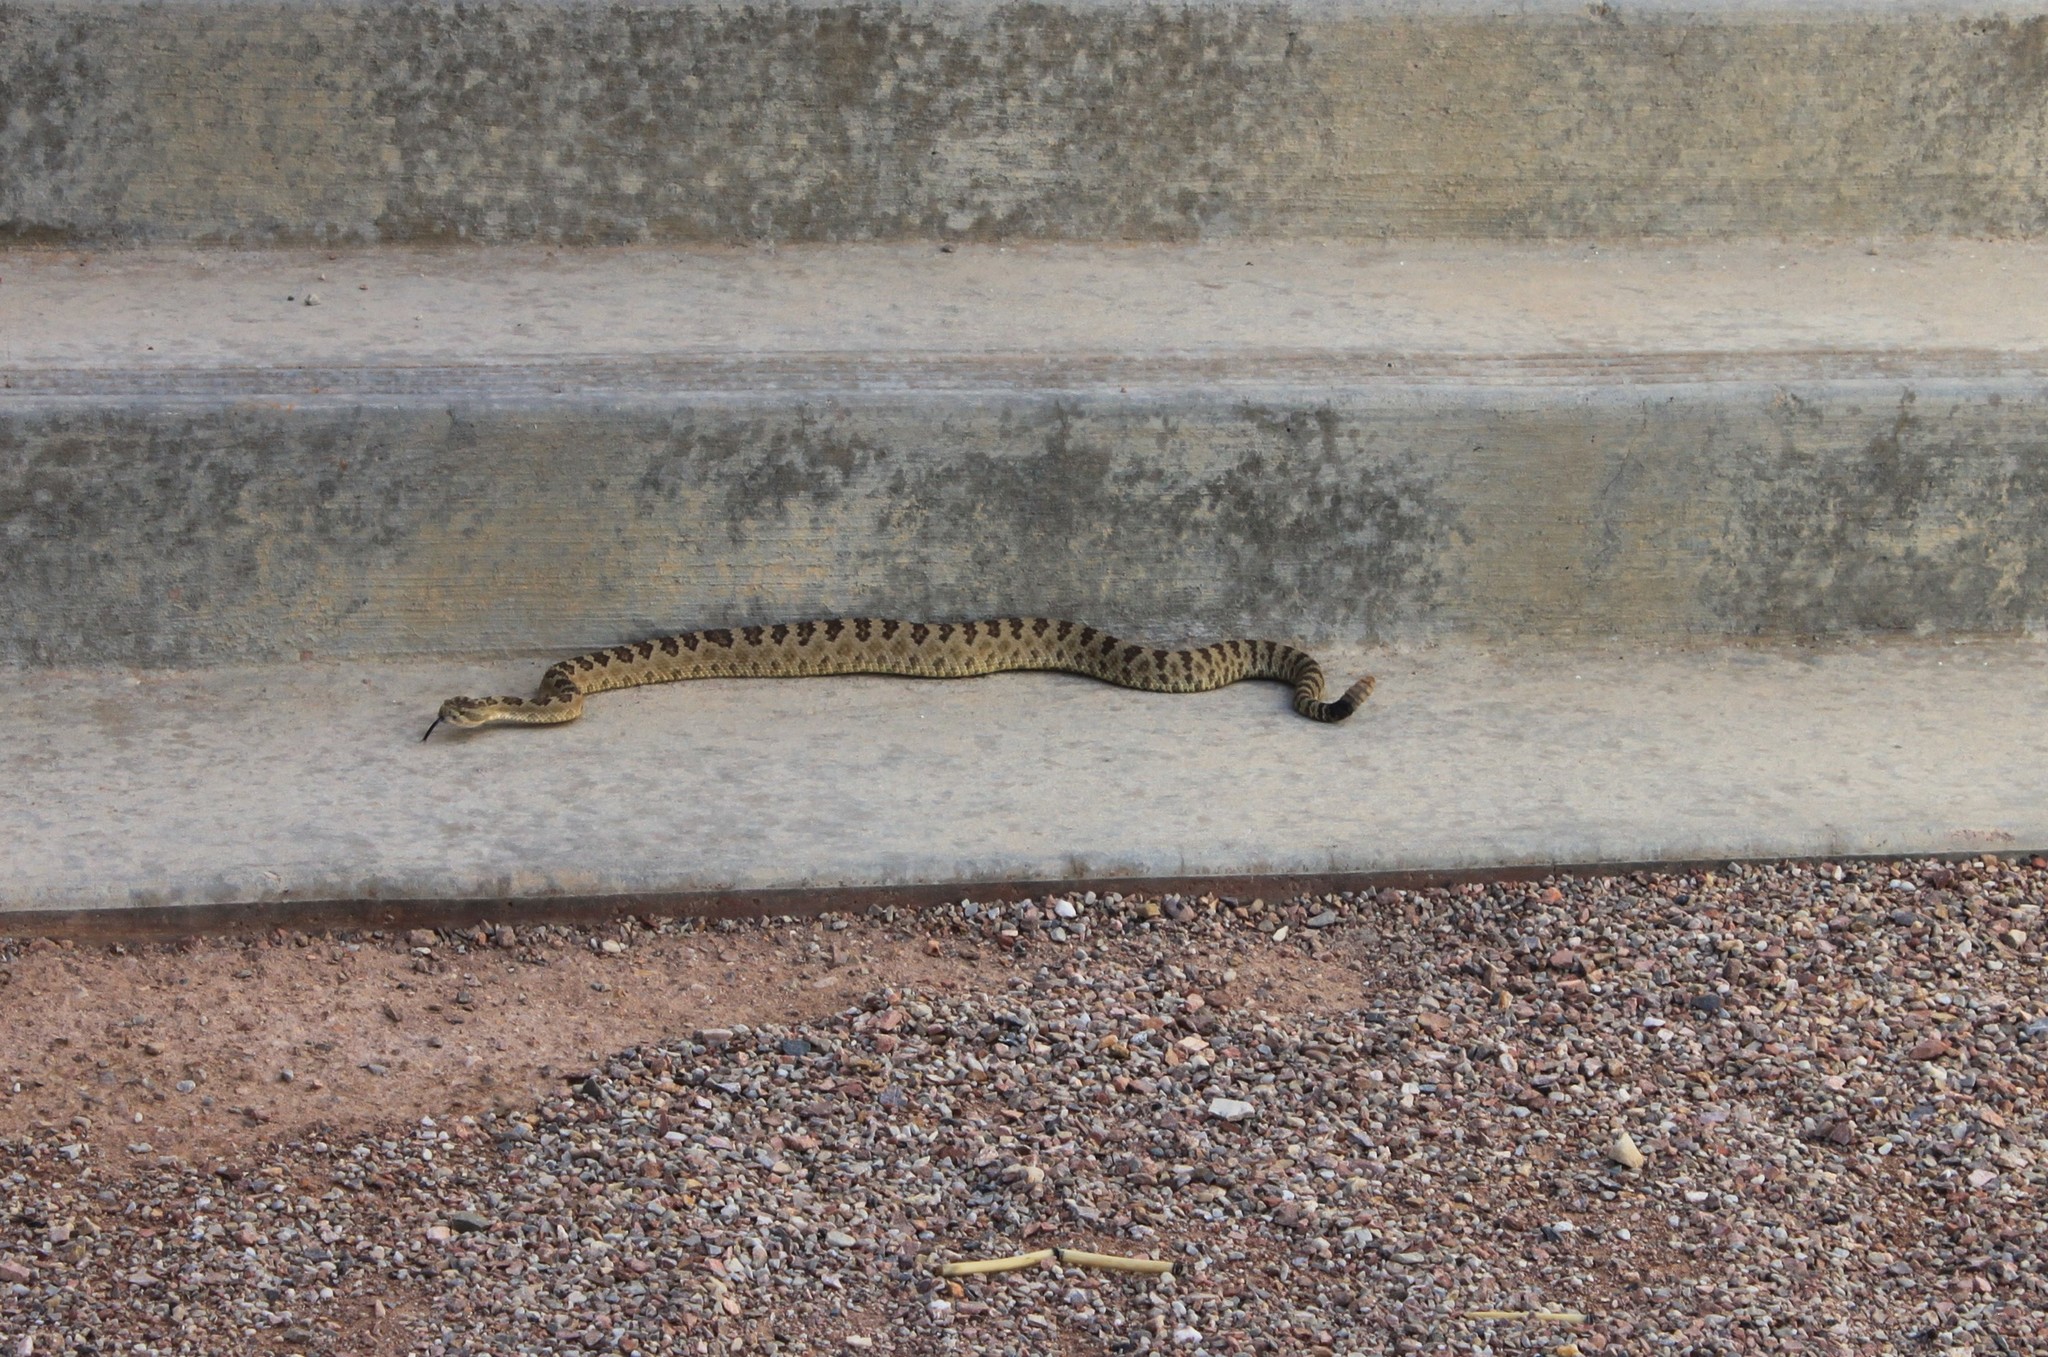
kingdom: Animalia
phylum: Chordata
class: Squamata
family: Viperidae
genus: Crotalus
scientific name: Crotalus oreganus
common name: Abyssus
